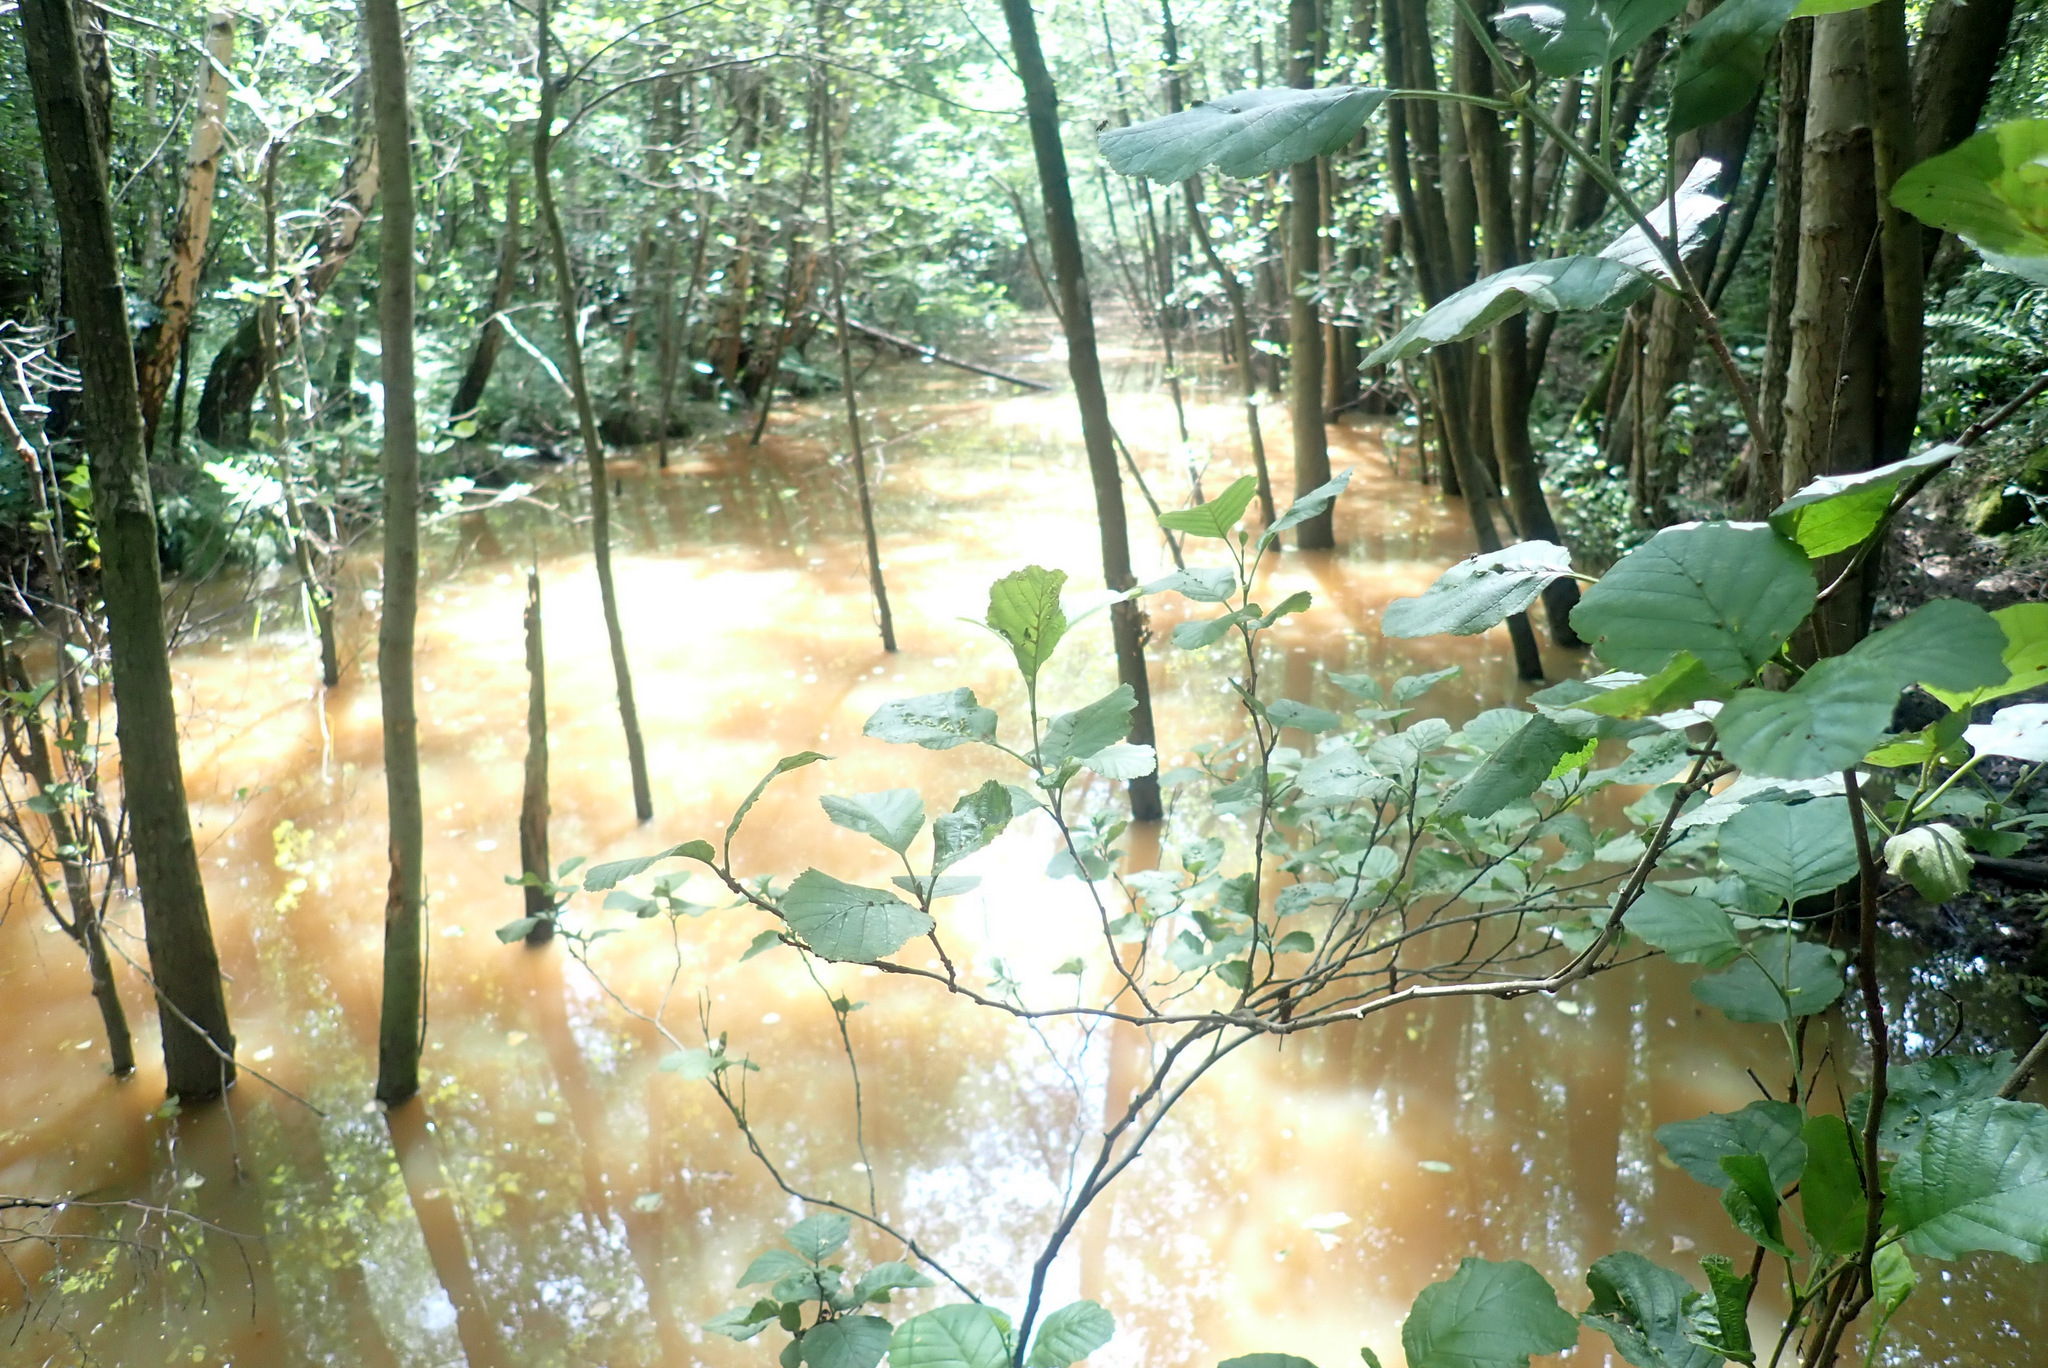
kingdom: Plantae
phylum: Tracheophyta
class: Magnoliopsida
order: Fagales
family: Betulaceae
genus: Alnus
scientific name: Alnus glutinosa
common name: Black alder
